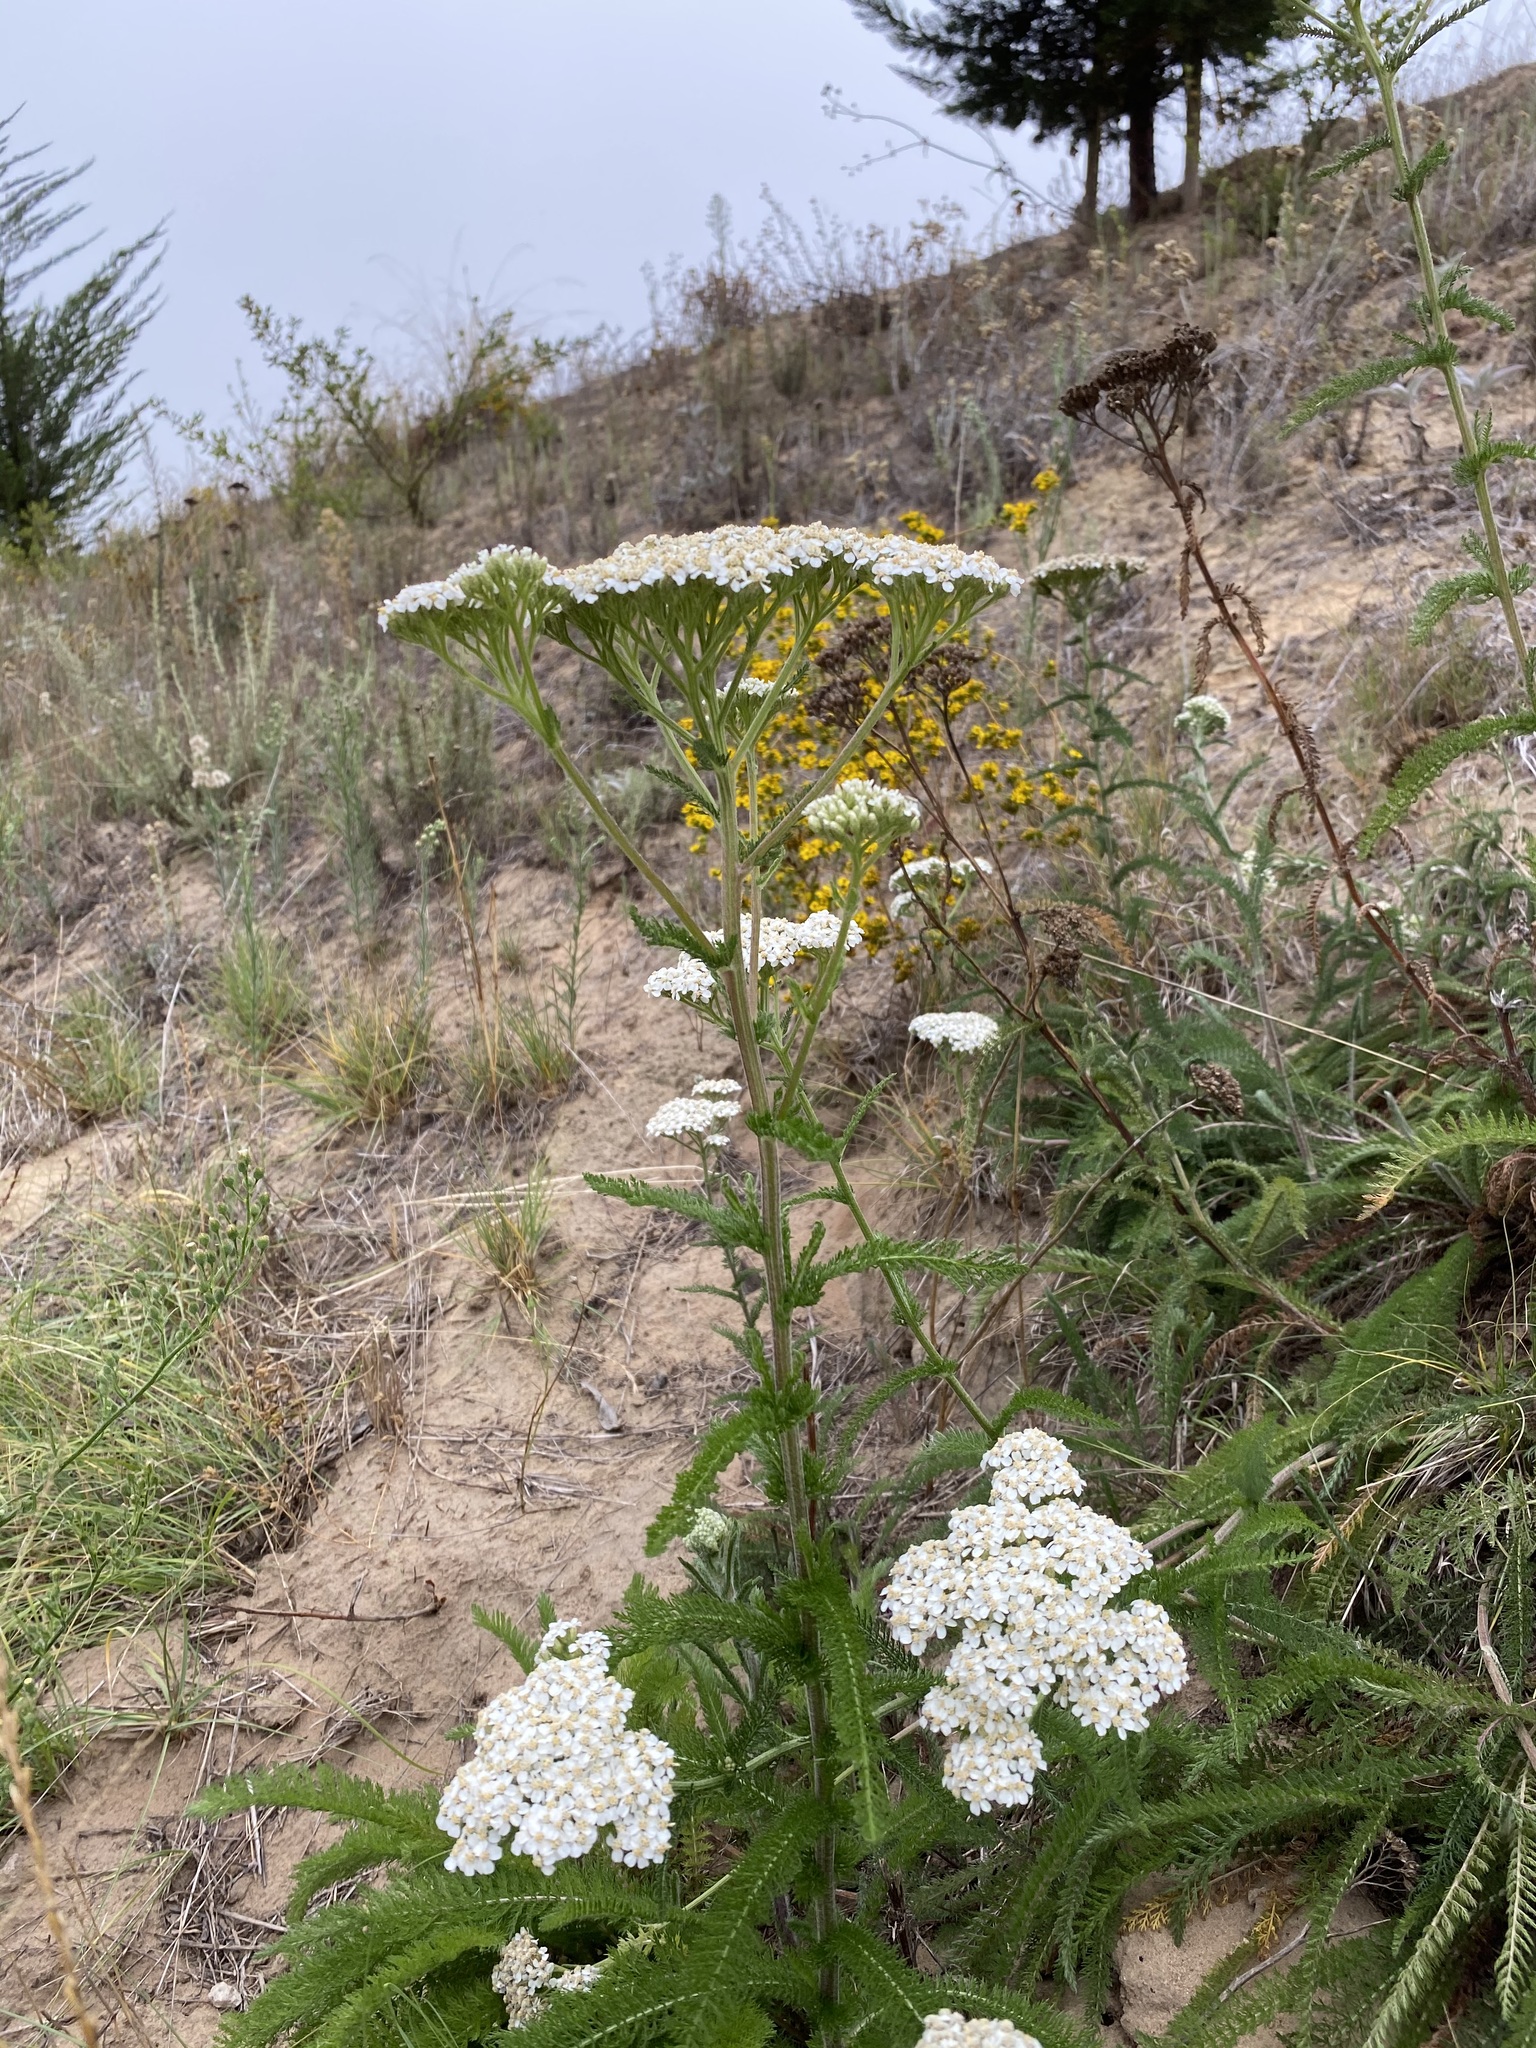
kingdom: Plantae
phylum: Tracheophyta
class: Magnoliopsida
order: Asterales
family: Asteraceae
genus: Achillea
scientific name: Achillea millefolium
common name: Yarrow
